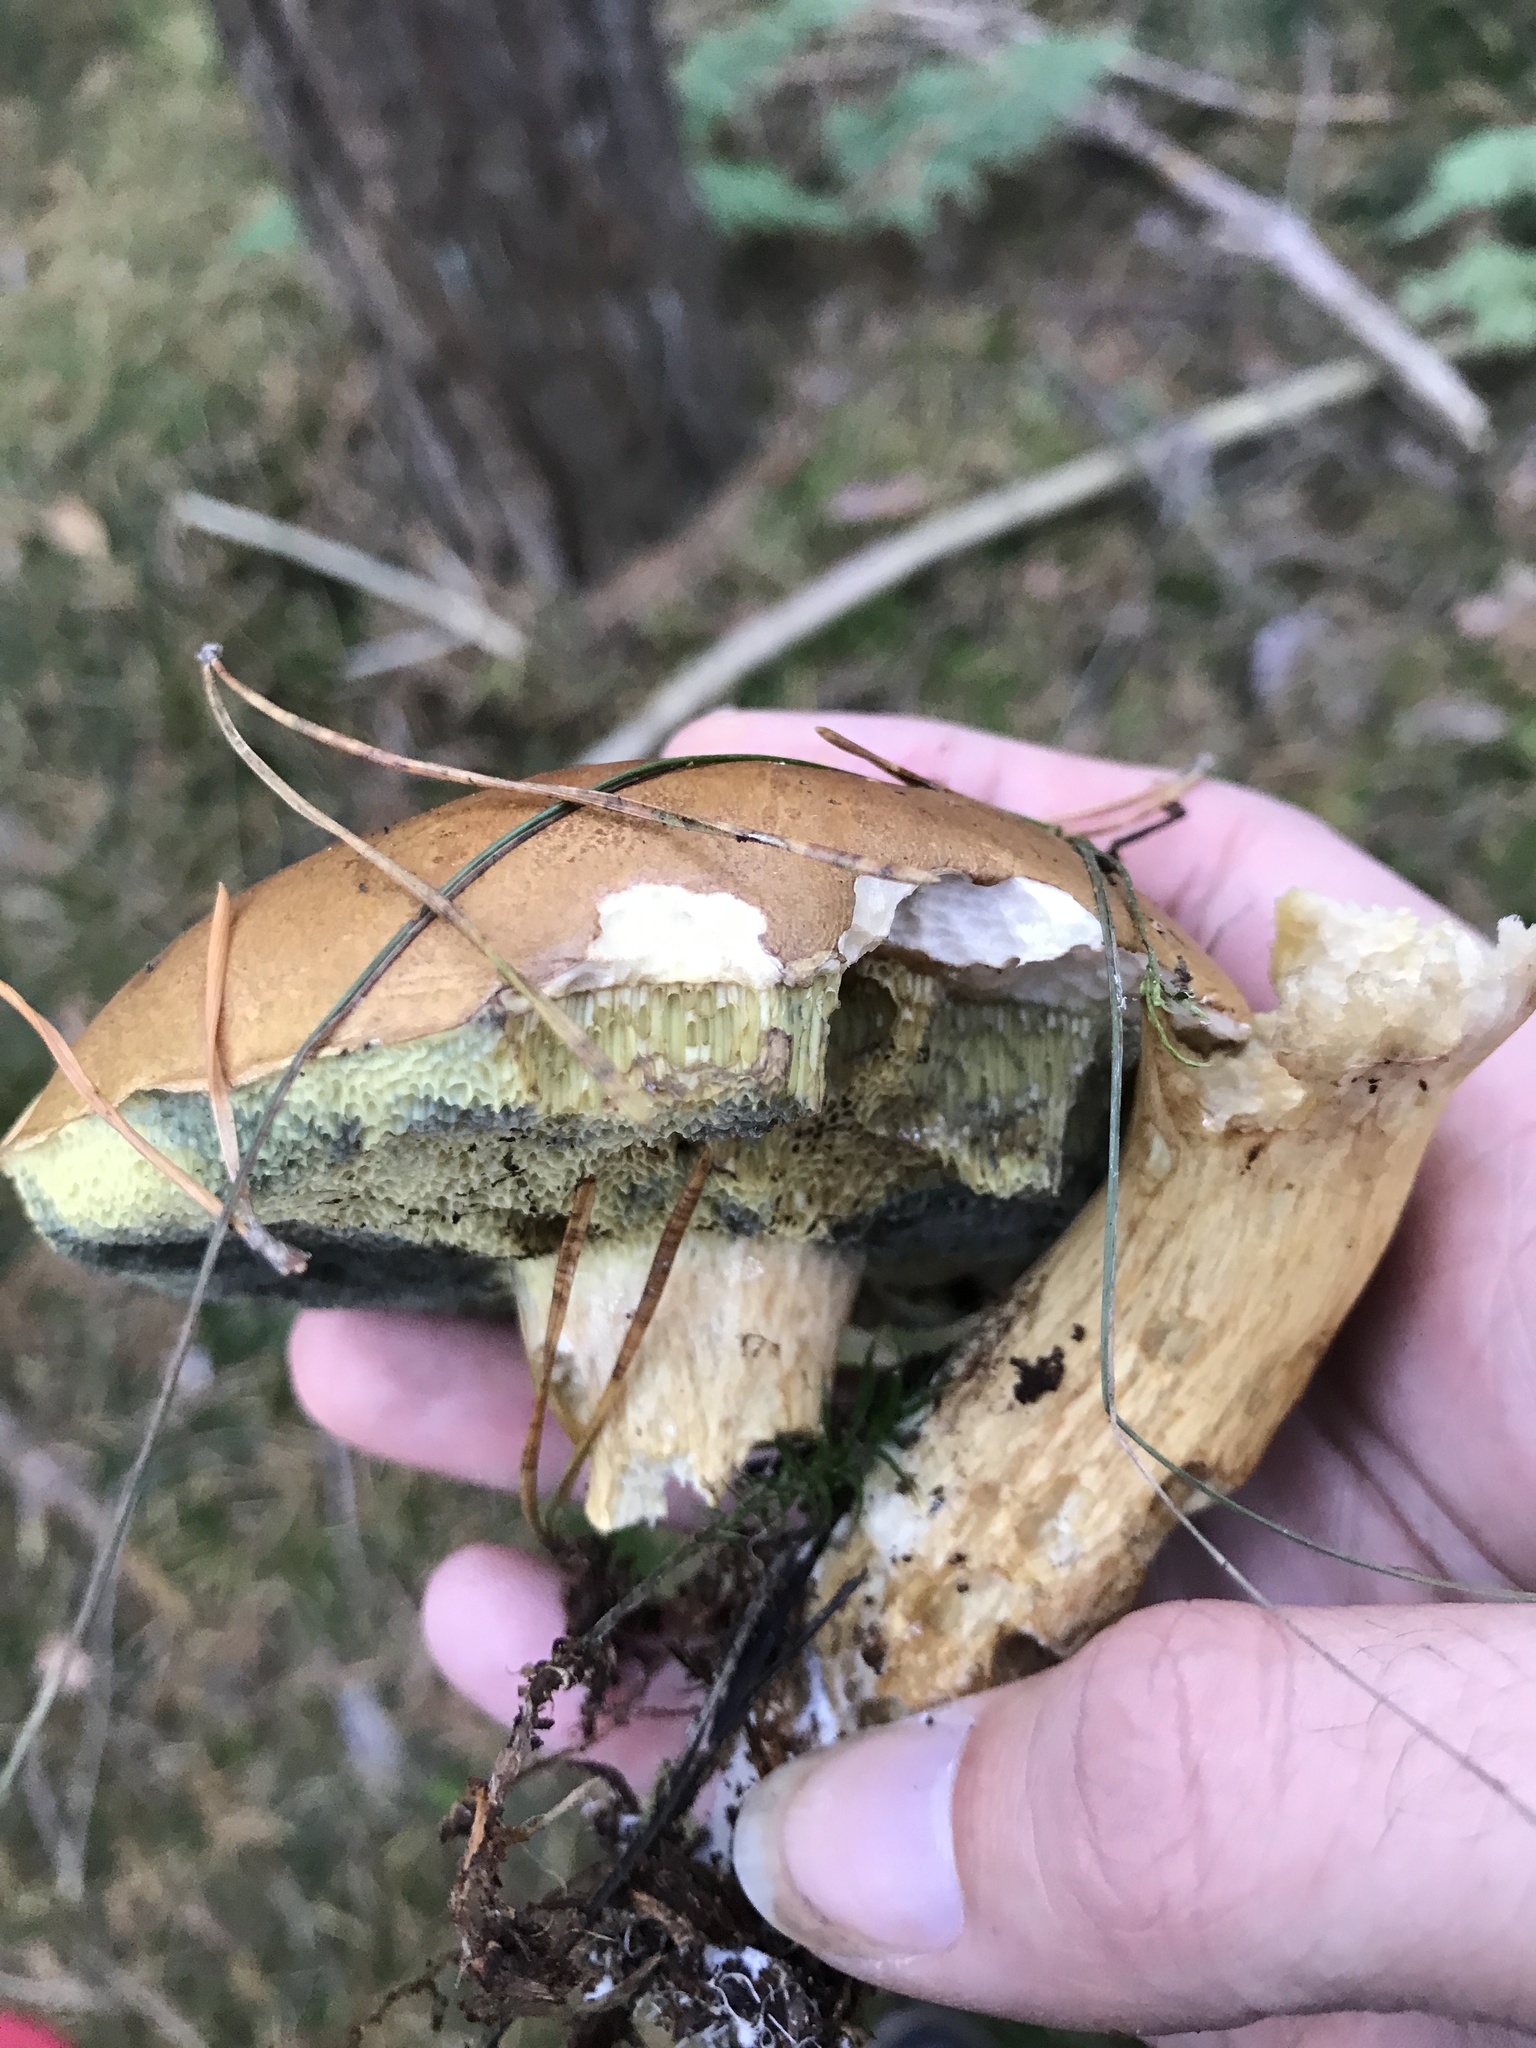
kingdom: Fungi
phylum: Basidiomycota
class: Agaricomycetes
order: Boletales
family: Boletaceae
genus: Imleria
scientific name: Imleria badia
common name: Bay bolete
